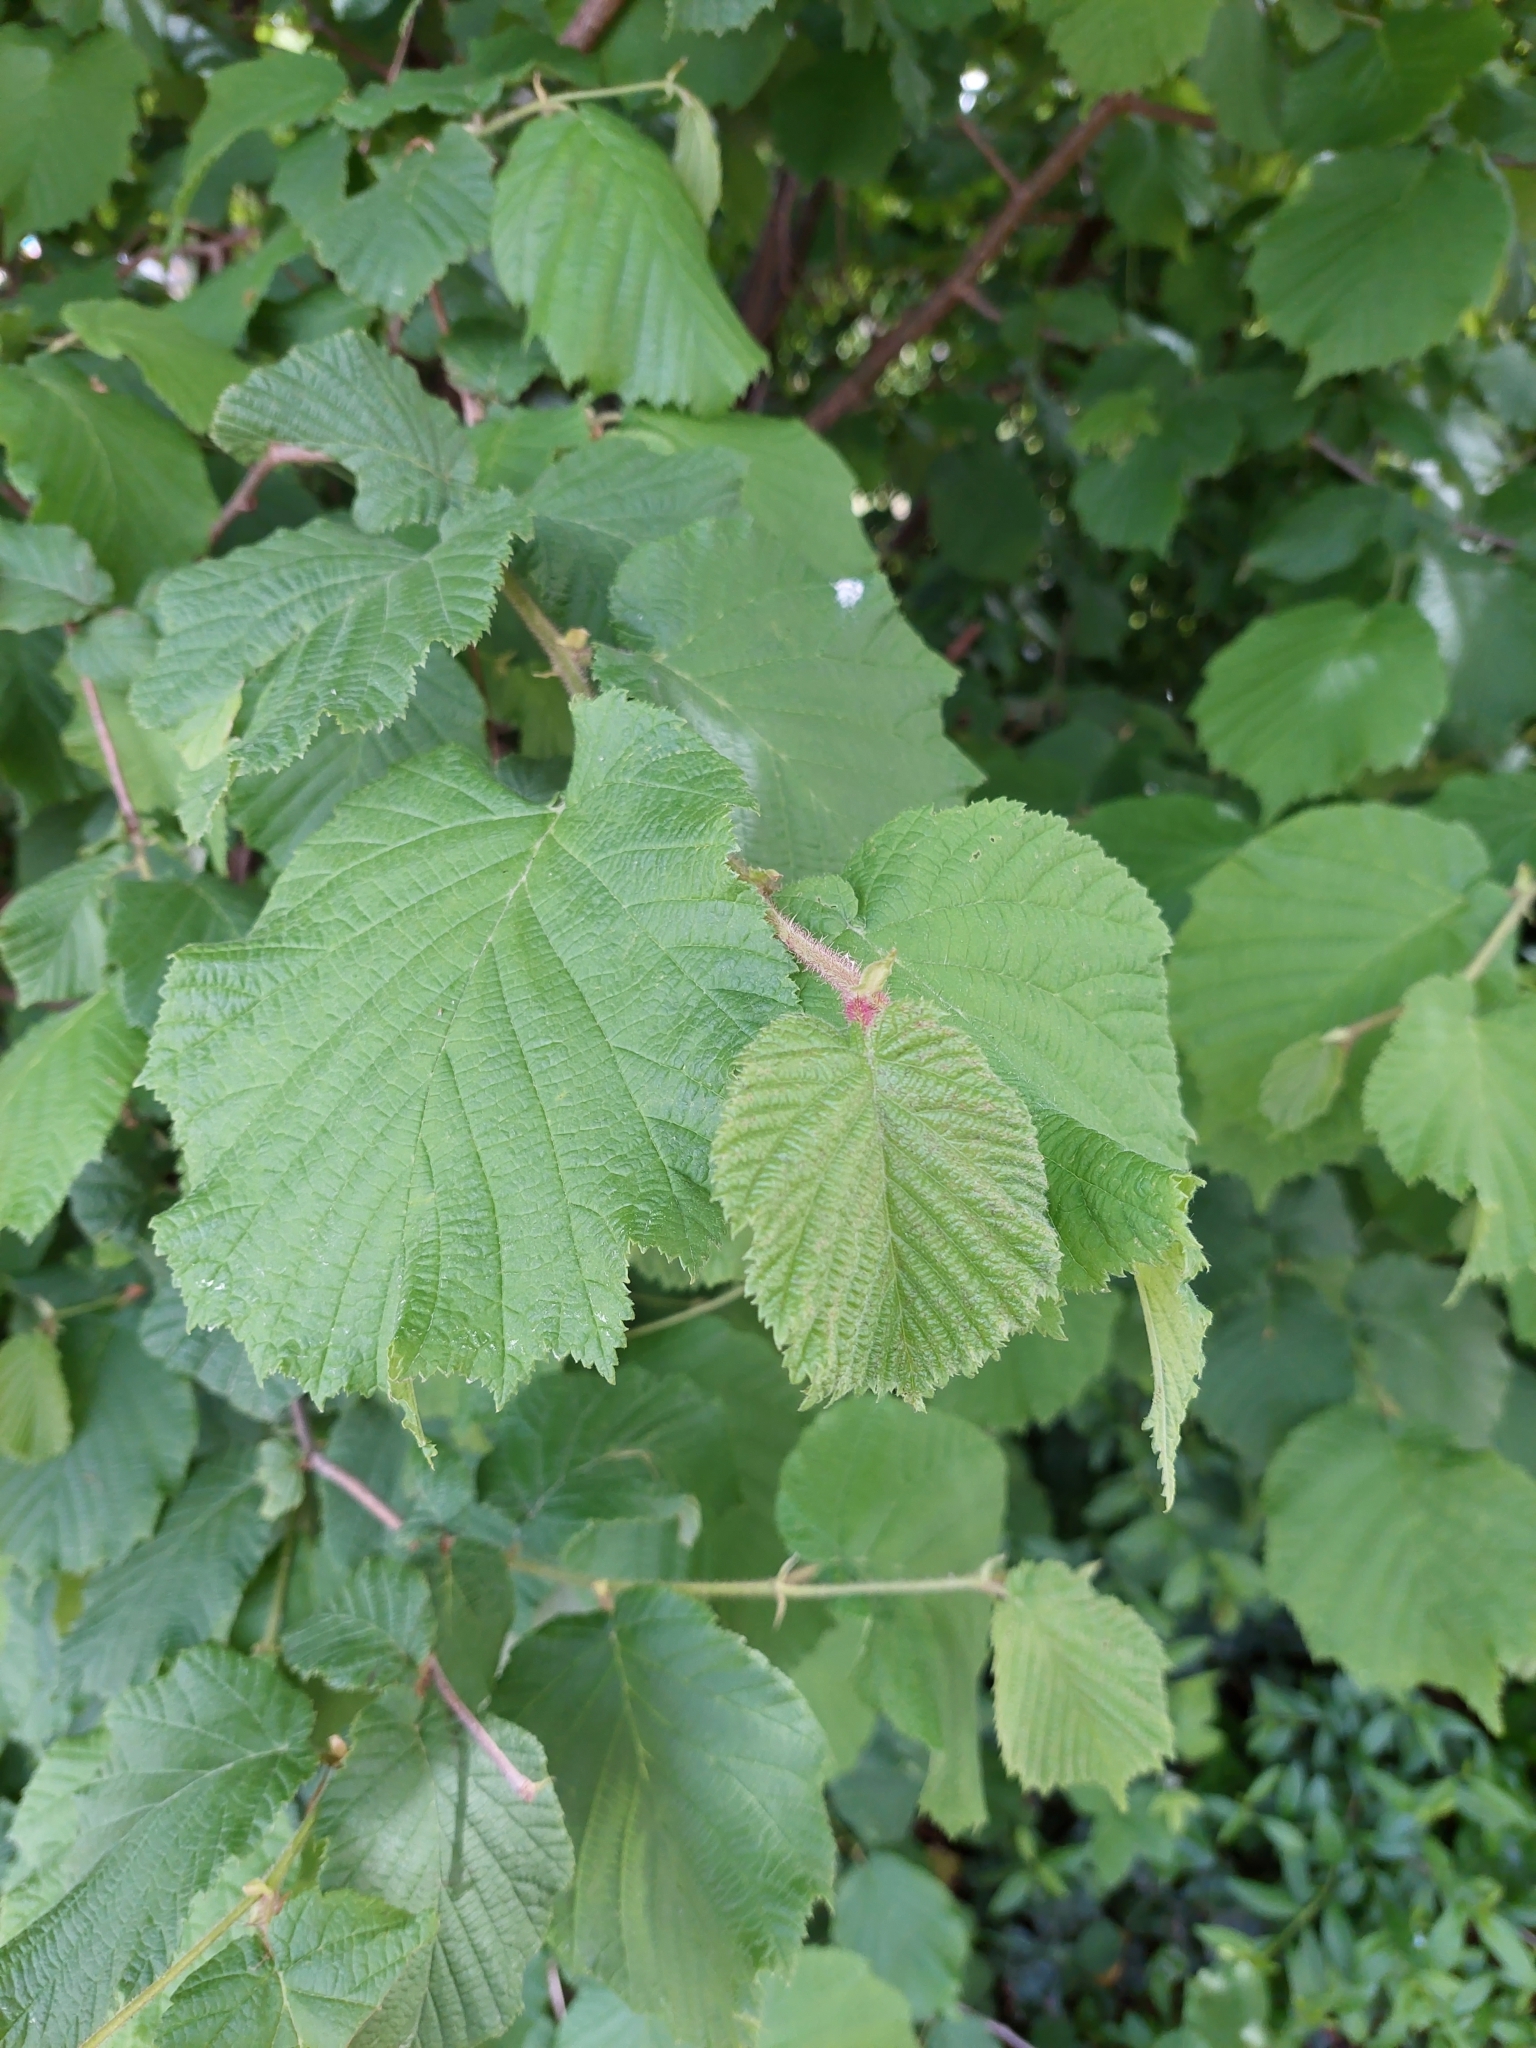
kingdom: Plantae
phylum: Tracheophyta
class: Magnoliopsida
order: Fagales
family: Betulaceae
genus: Corylus
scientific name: Corylus avellana
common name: European hazel
